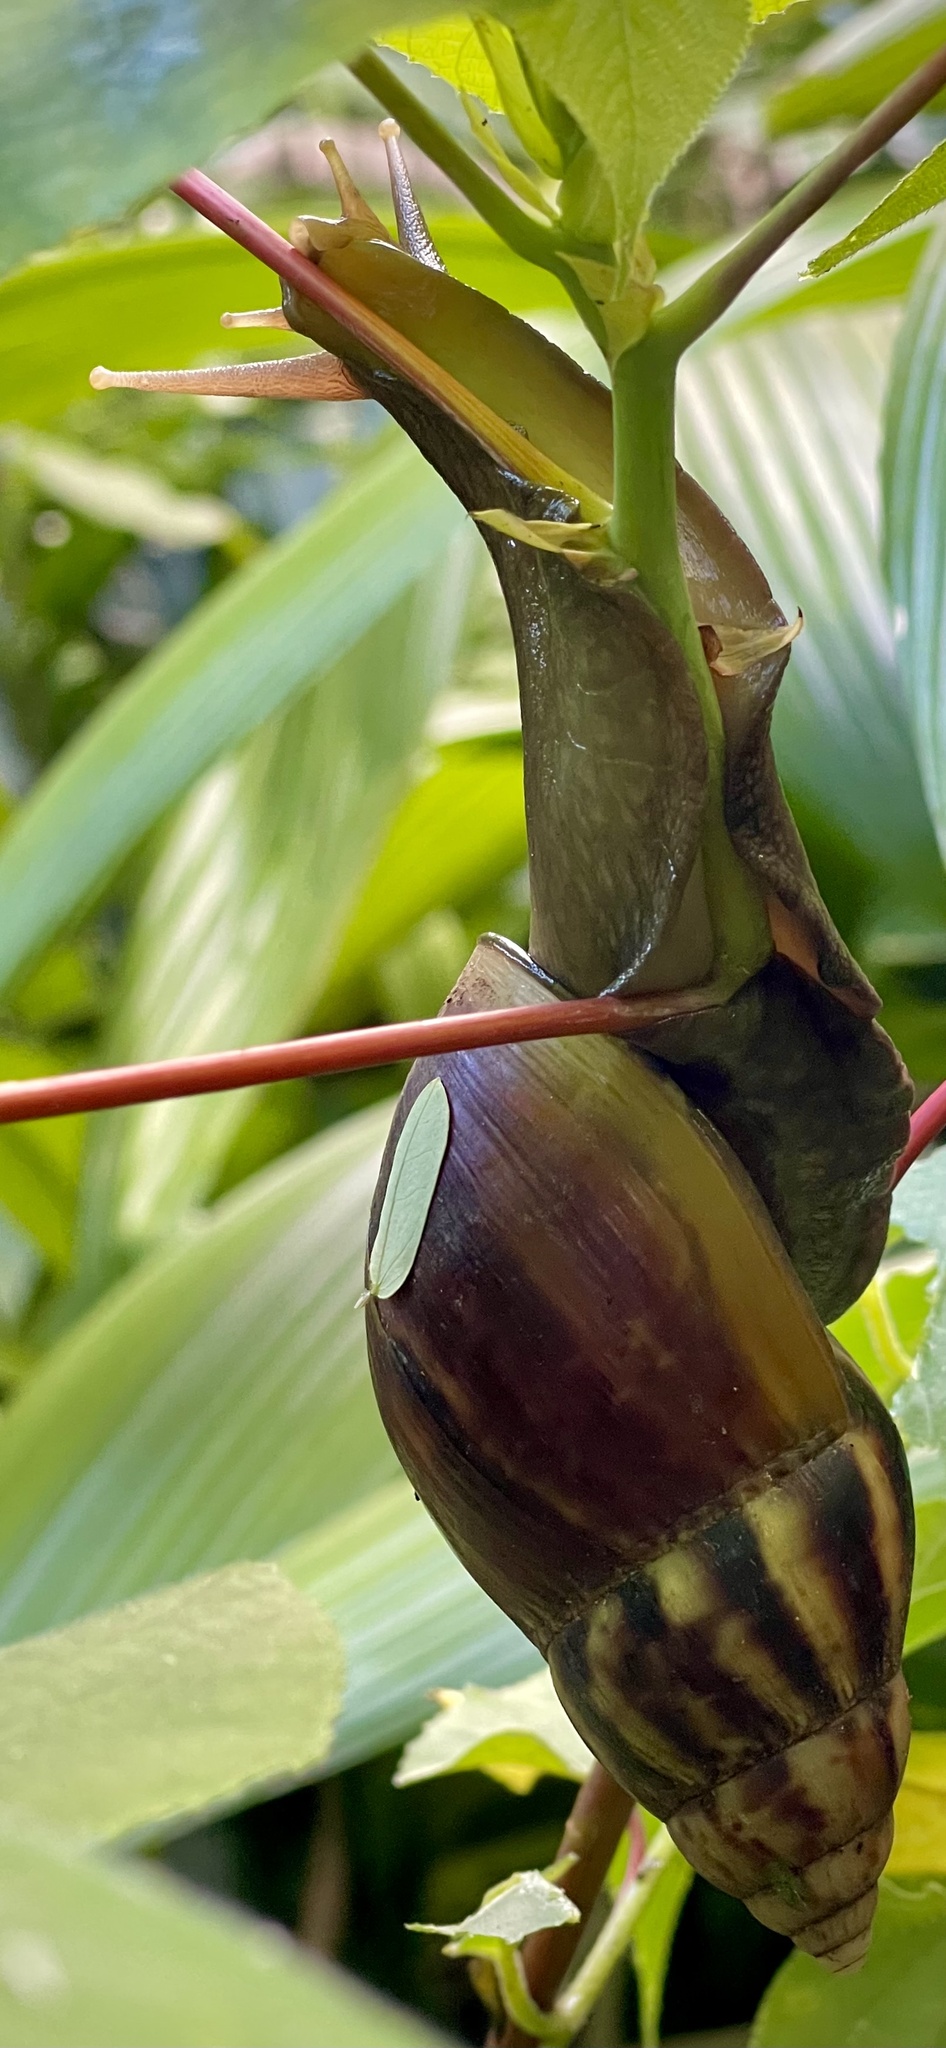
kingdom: Animalia
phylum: Mollusca
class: Gastropoda
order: Stylommatophora
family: Achatinidae
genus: Lissachatina
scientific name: Lissachatina fulica
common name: Giant african snail
